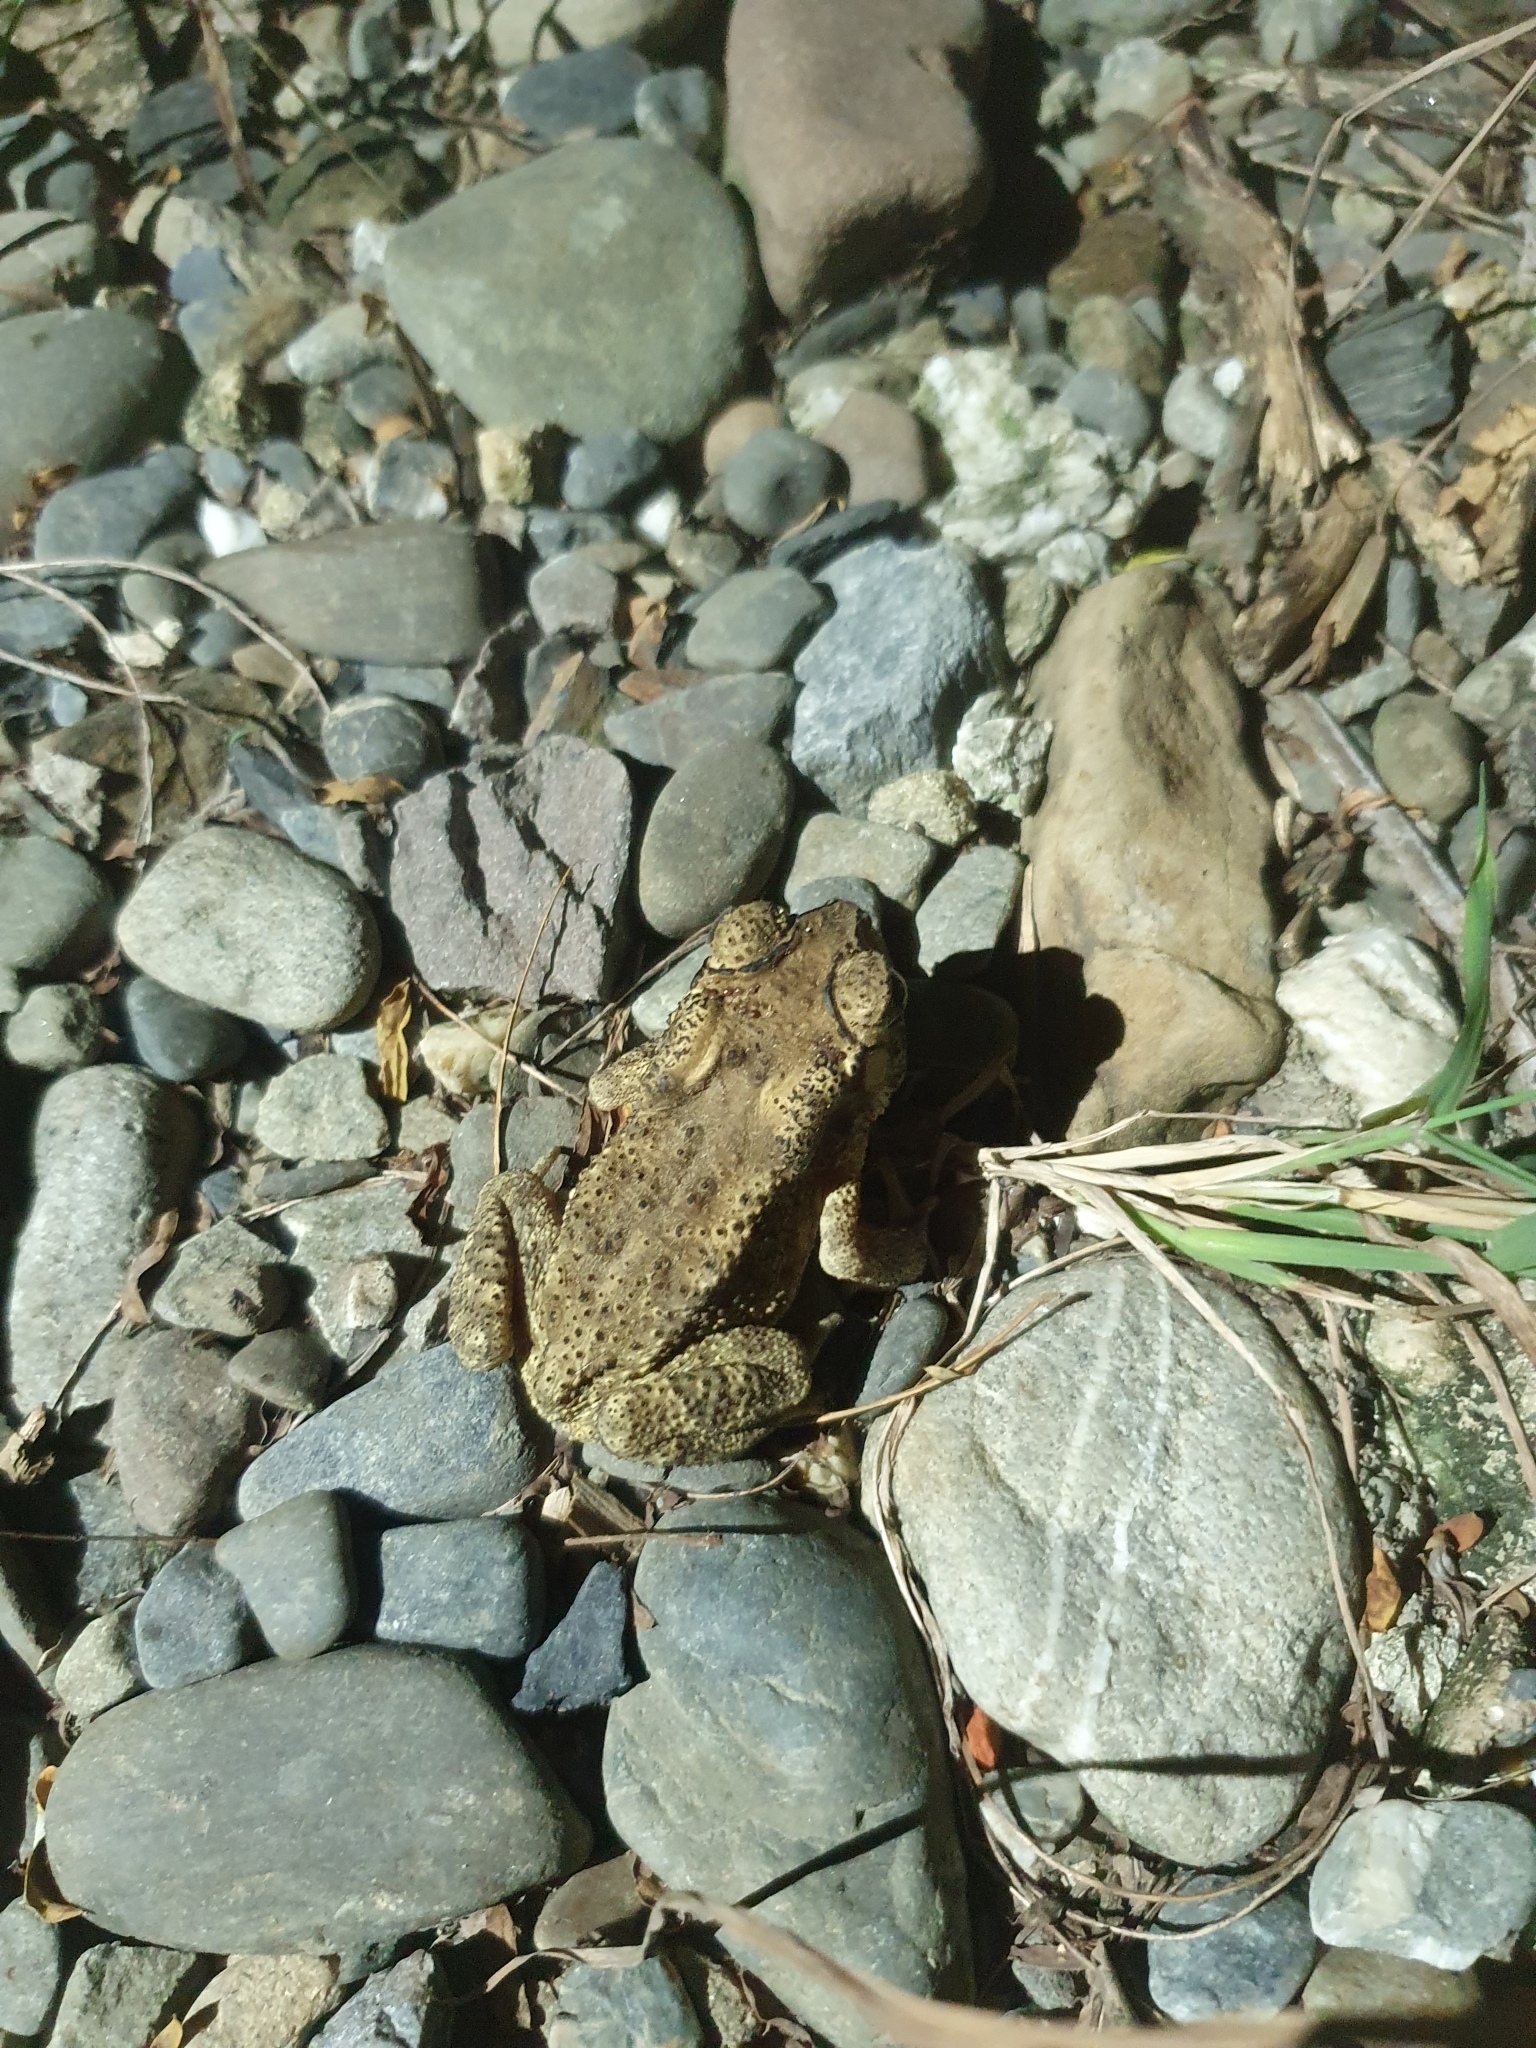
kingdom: Animalia
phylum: Chordata
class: Amphibia
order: Anura
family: Bufonidae
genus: Duttaphrynus
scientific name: Duttaphrynus melanostictus
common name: Common sunda toad
